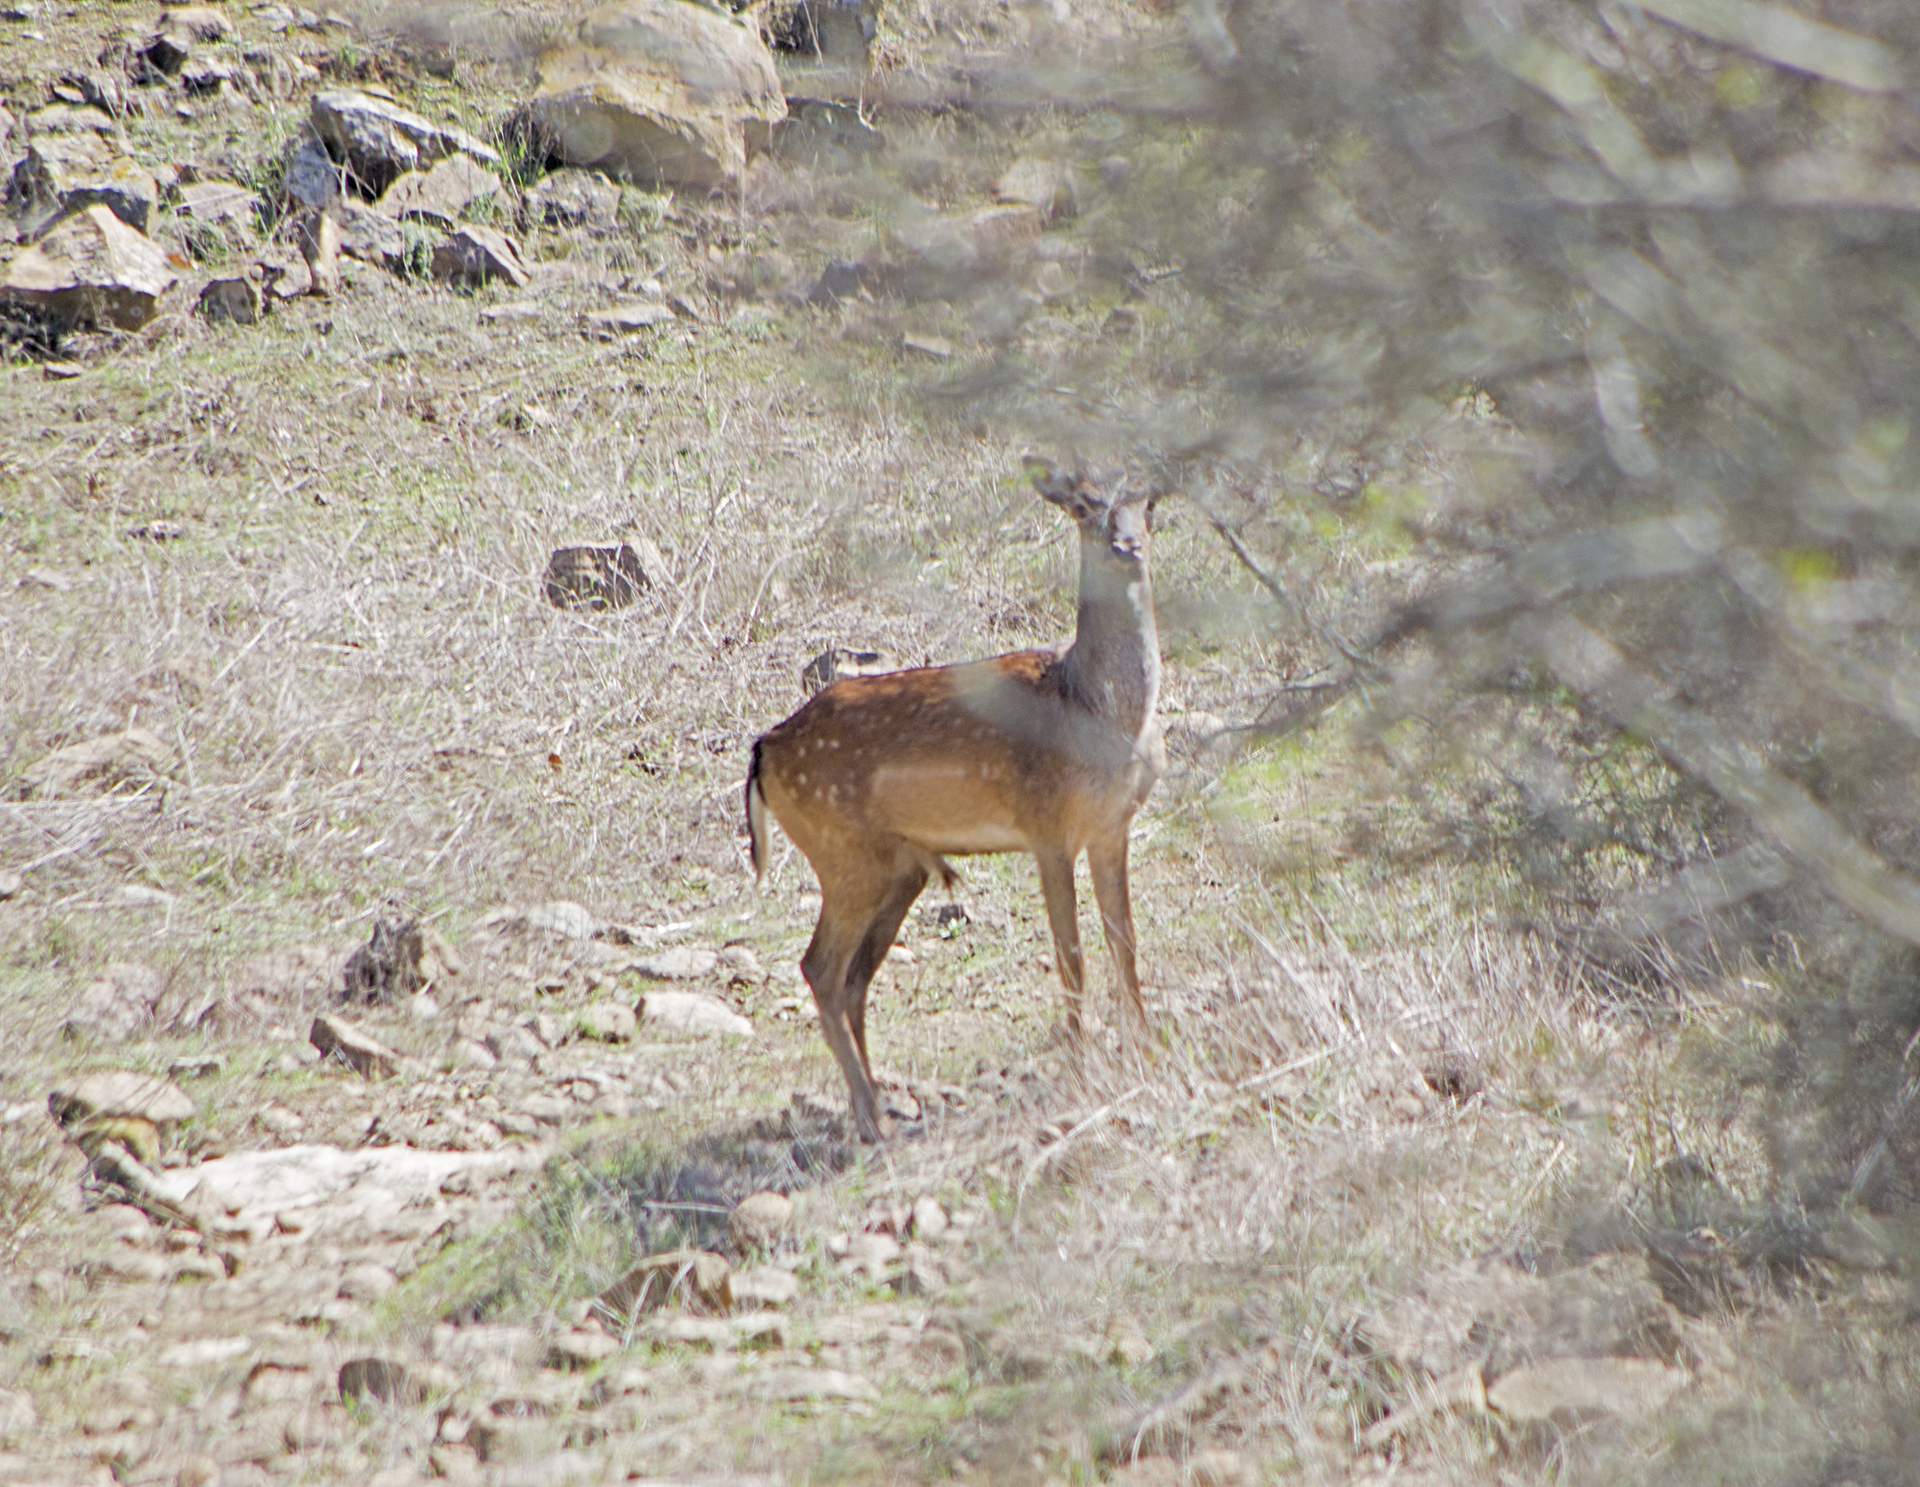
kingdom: Animalia
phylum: Chordata
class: Mammalia
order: Artiodactyla
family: Cervidae
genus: Dama
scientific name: Dama dama
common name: Fallow deer
